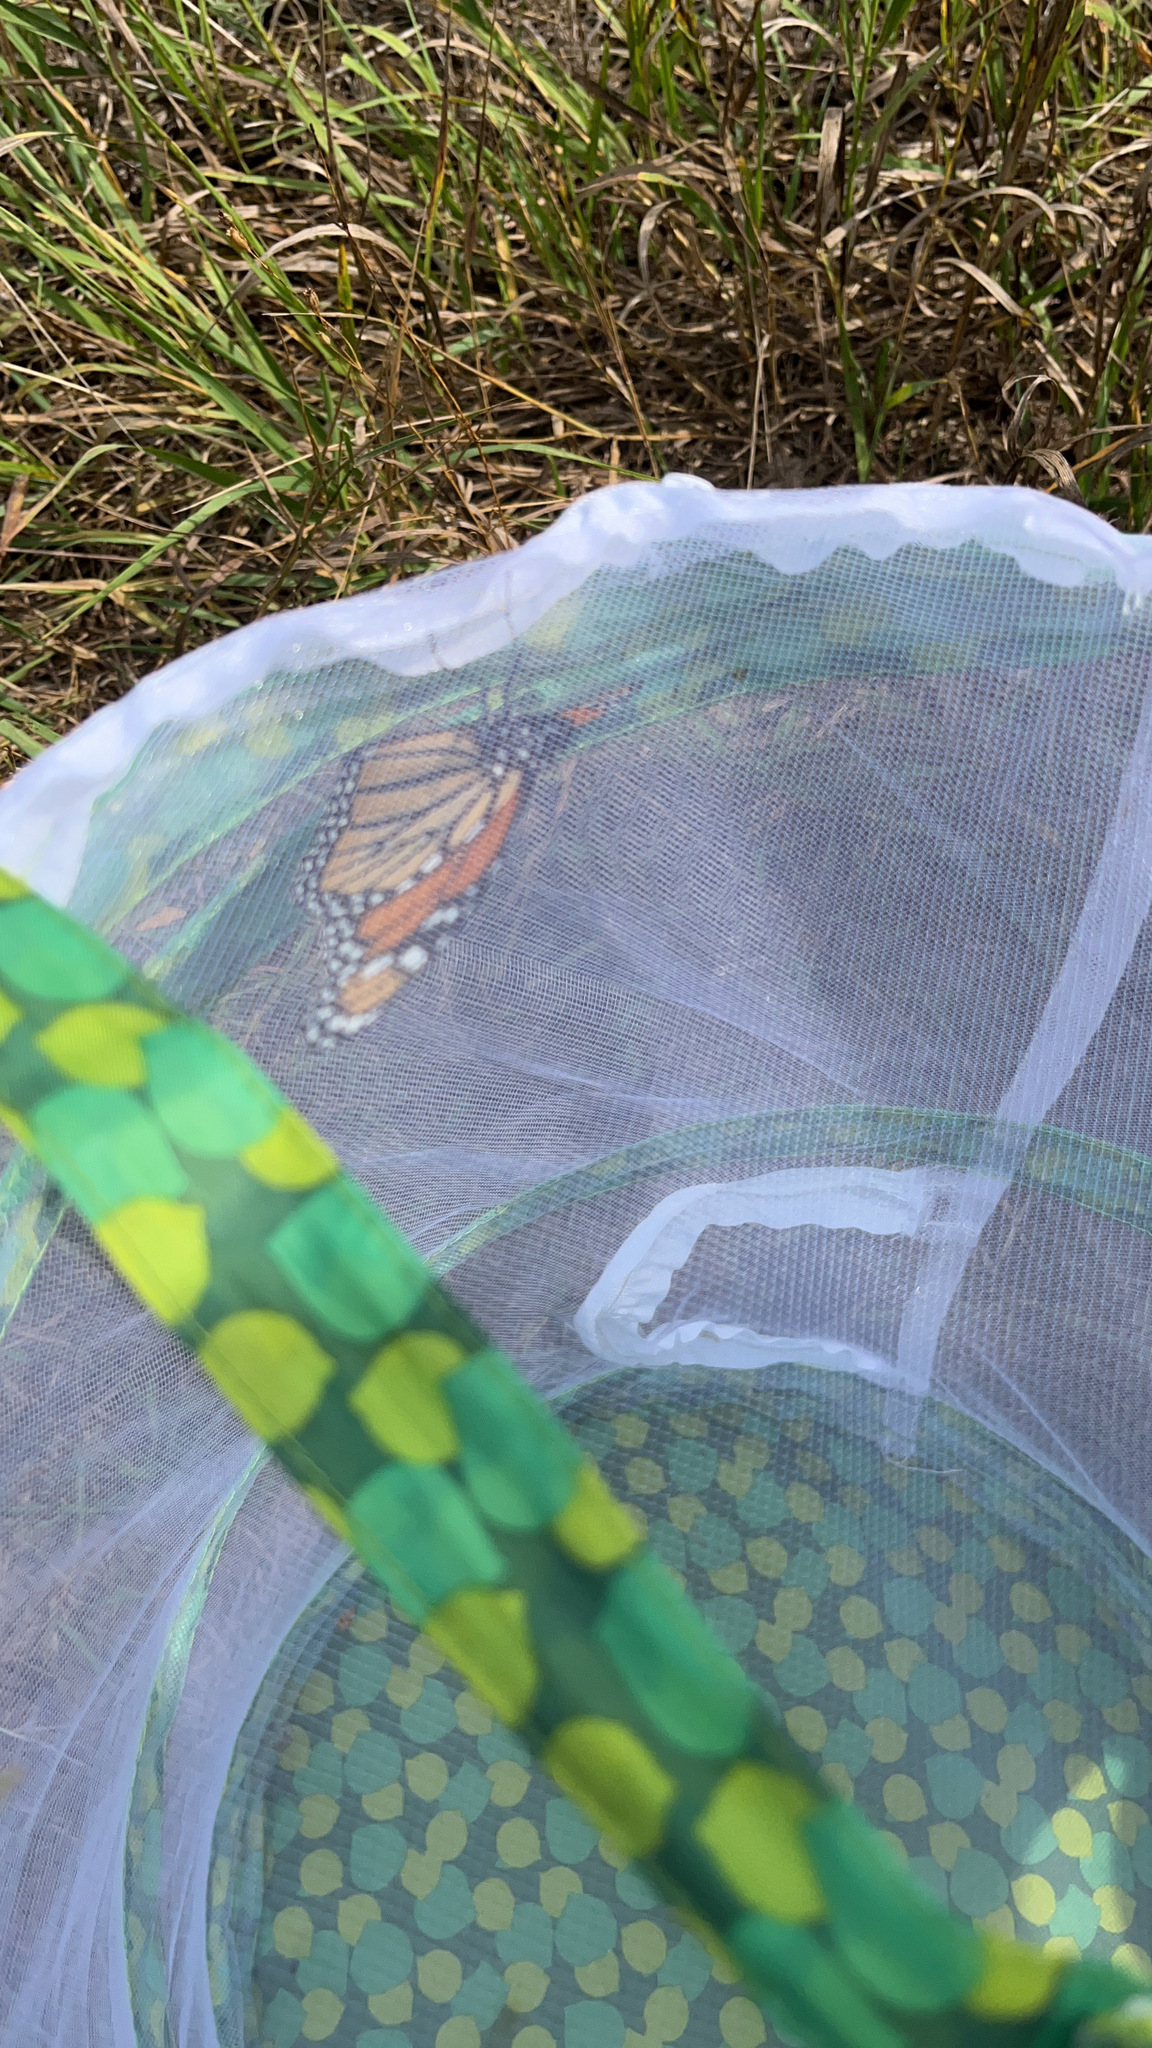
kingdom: Animalia
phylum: Arthropoda
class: Insecta
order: Lepidoptera
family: Nymphalidae
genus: Danaus
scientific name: Danaus plexippus
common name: Monarch
